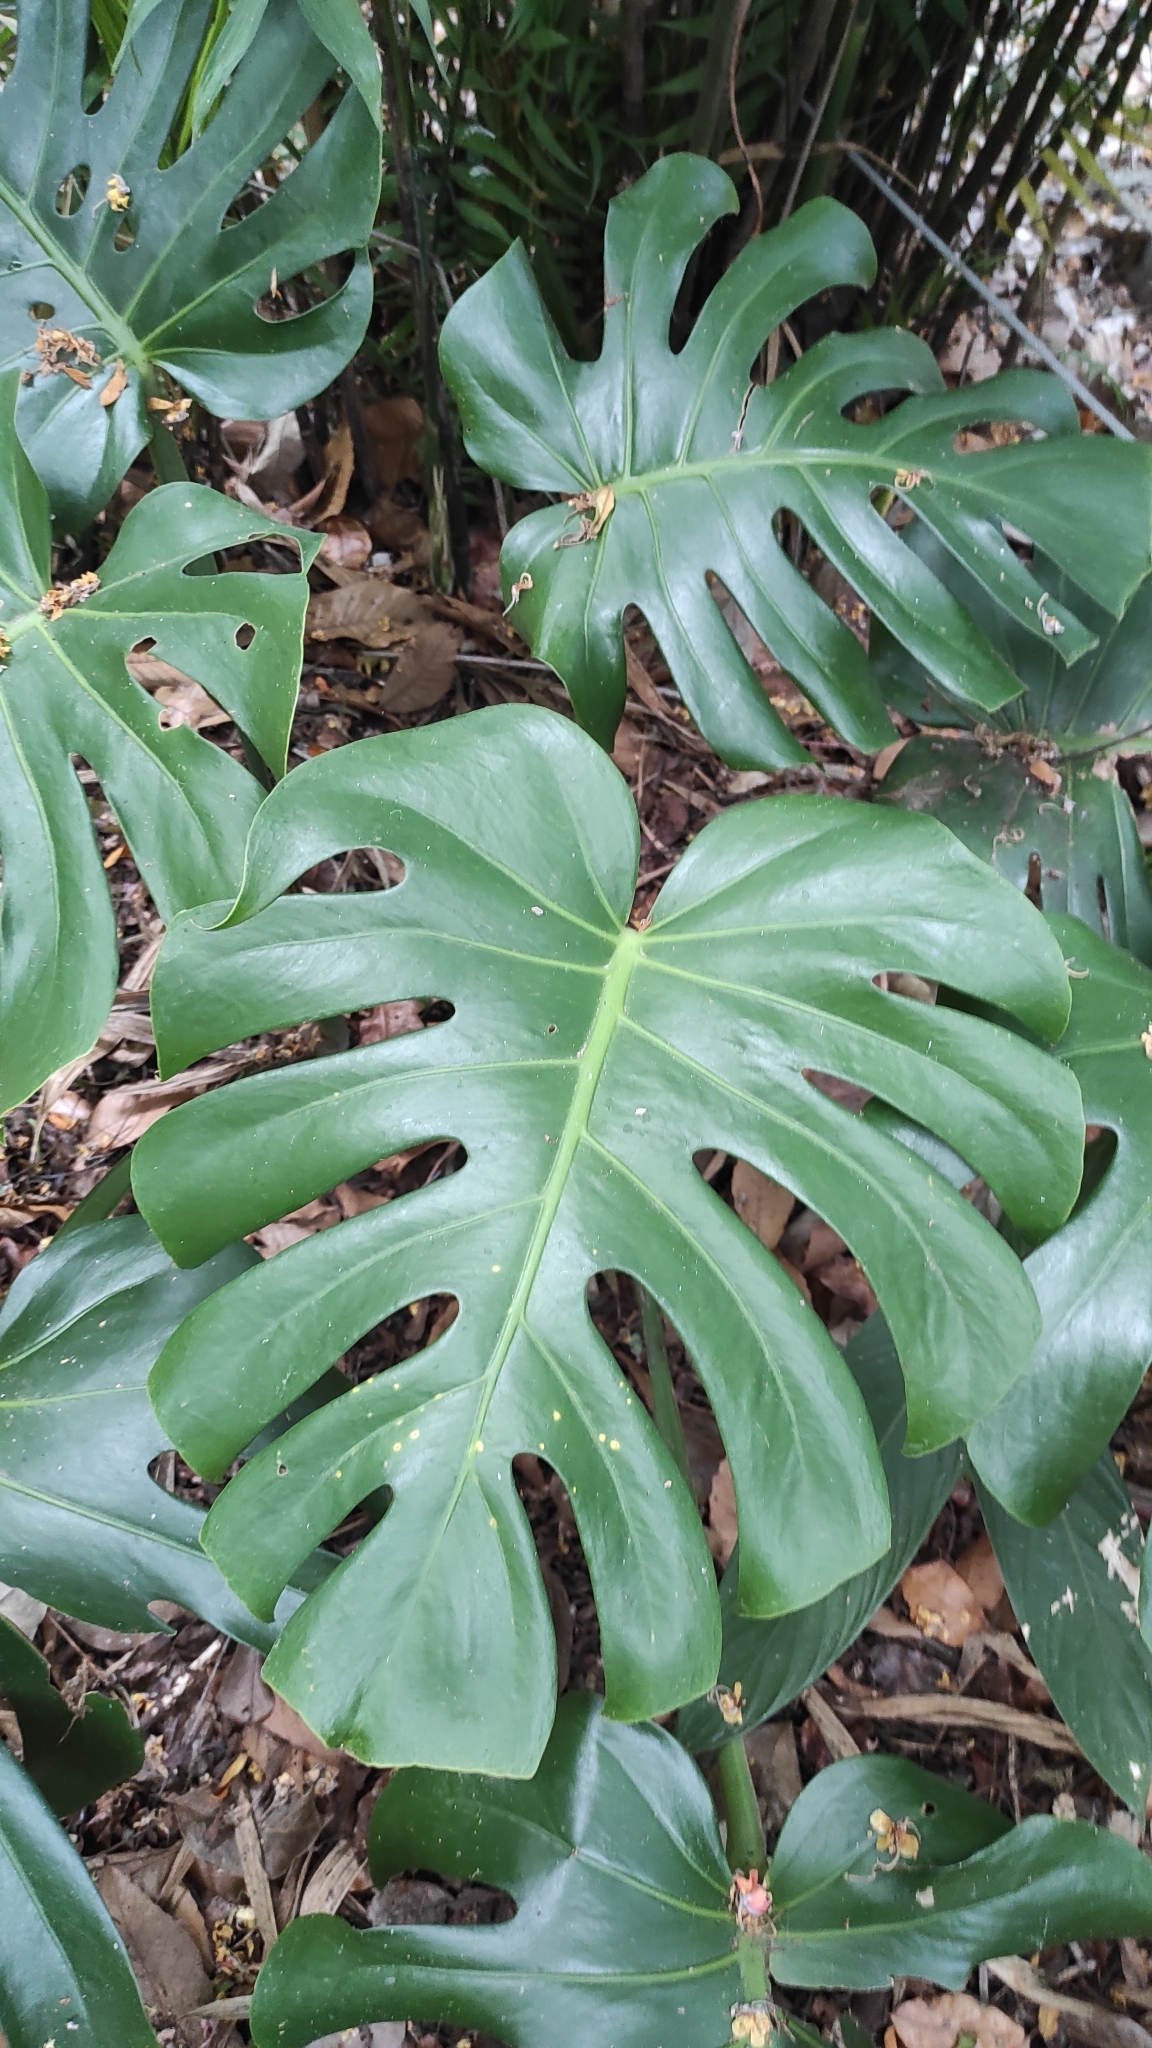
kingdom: Plantae
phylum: Tracheophyta
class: Liliopsida
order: Alismatales
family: Araceae
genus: Monstera
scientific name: Monstera deliciosa
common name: Cut-leaf-philodendron
